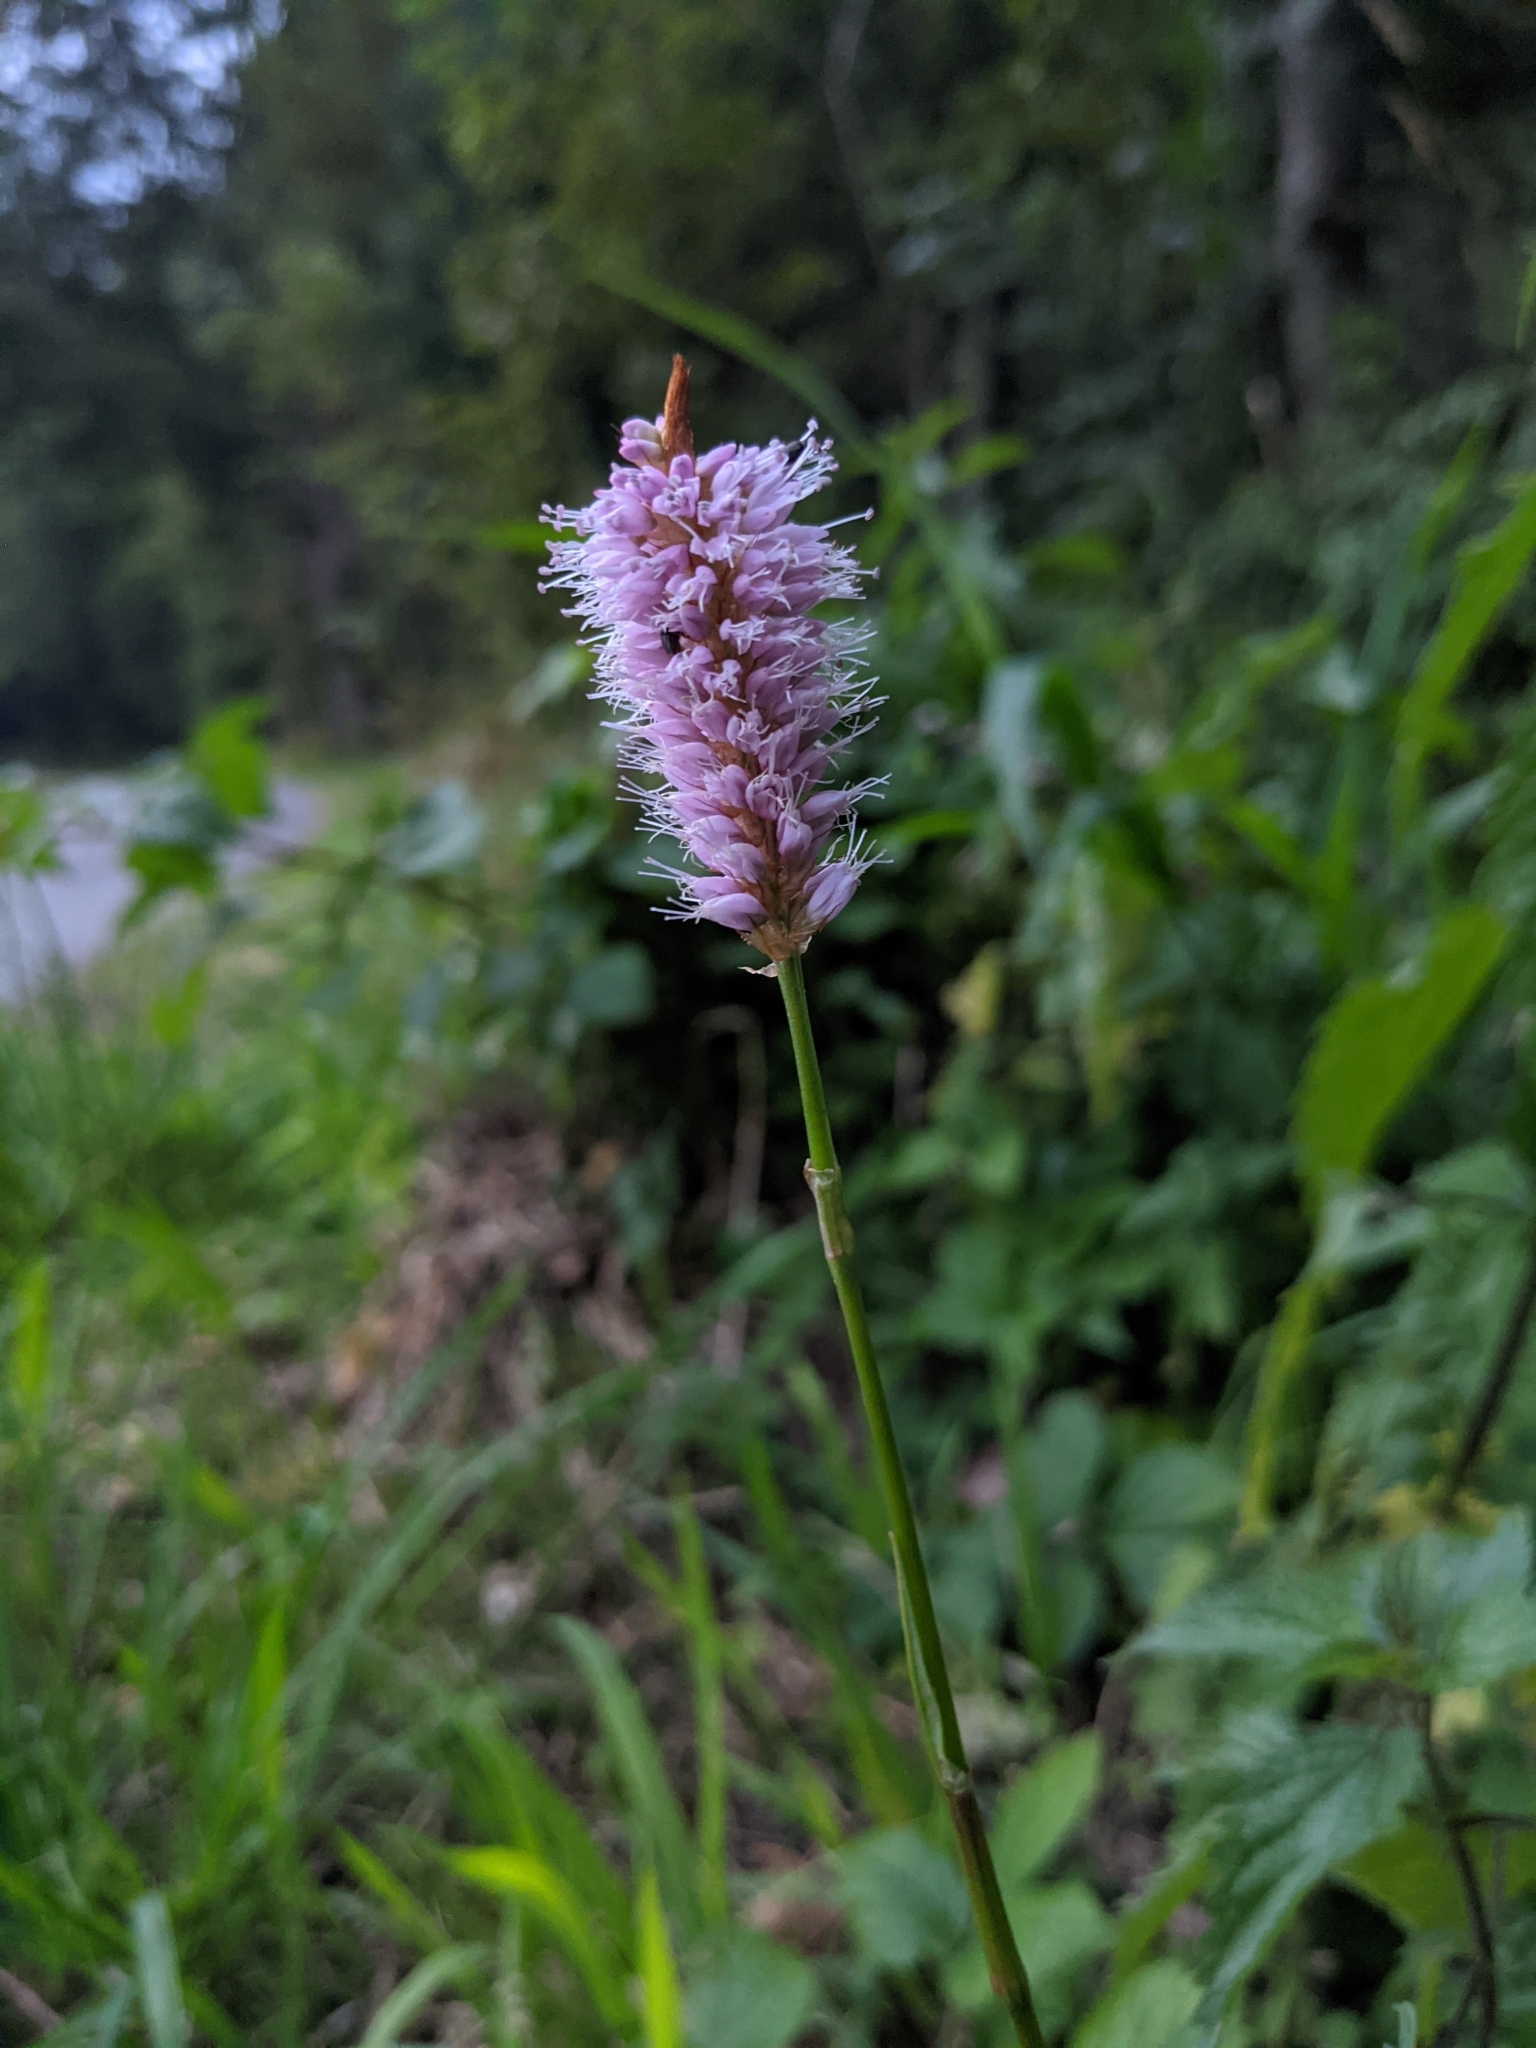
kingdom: Plantae
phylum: Tracheophyta
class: Magnoliopsida
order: Caryophyllales
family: Polygonaceae
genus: Bistorta
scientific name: Bistorta officinalis
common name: Common bistort
